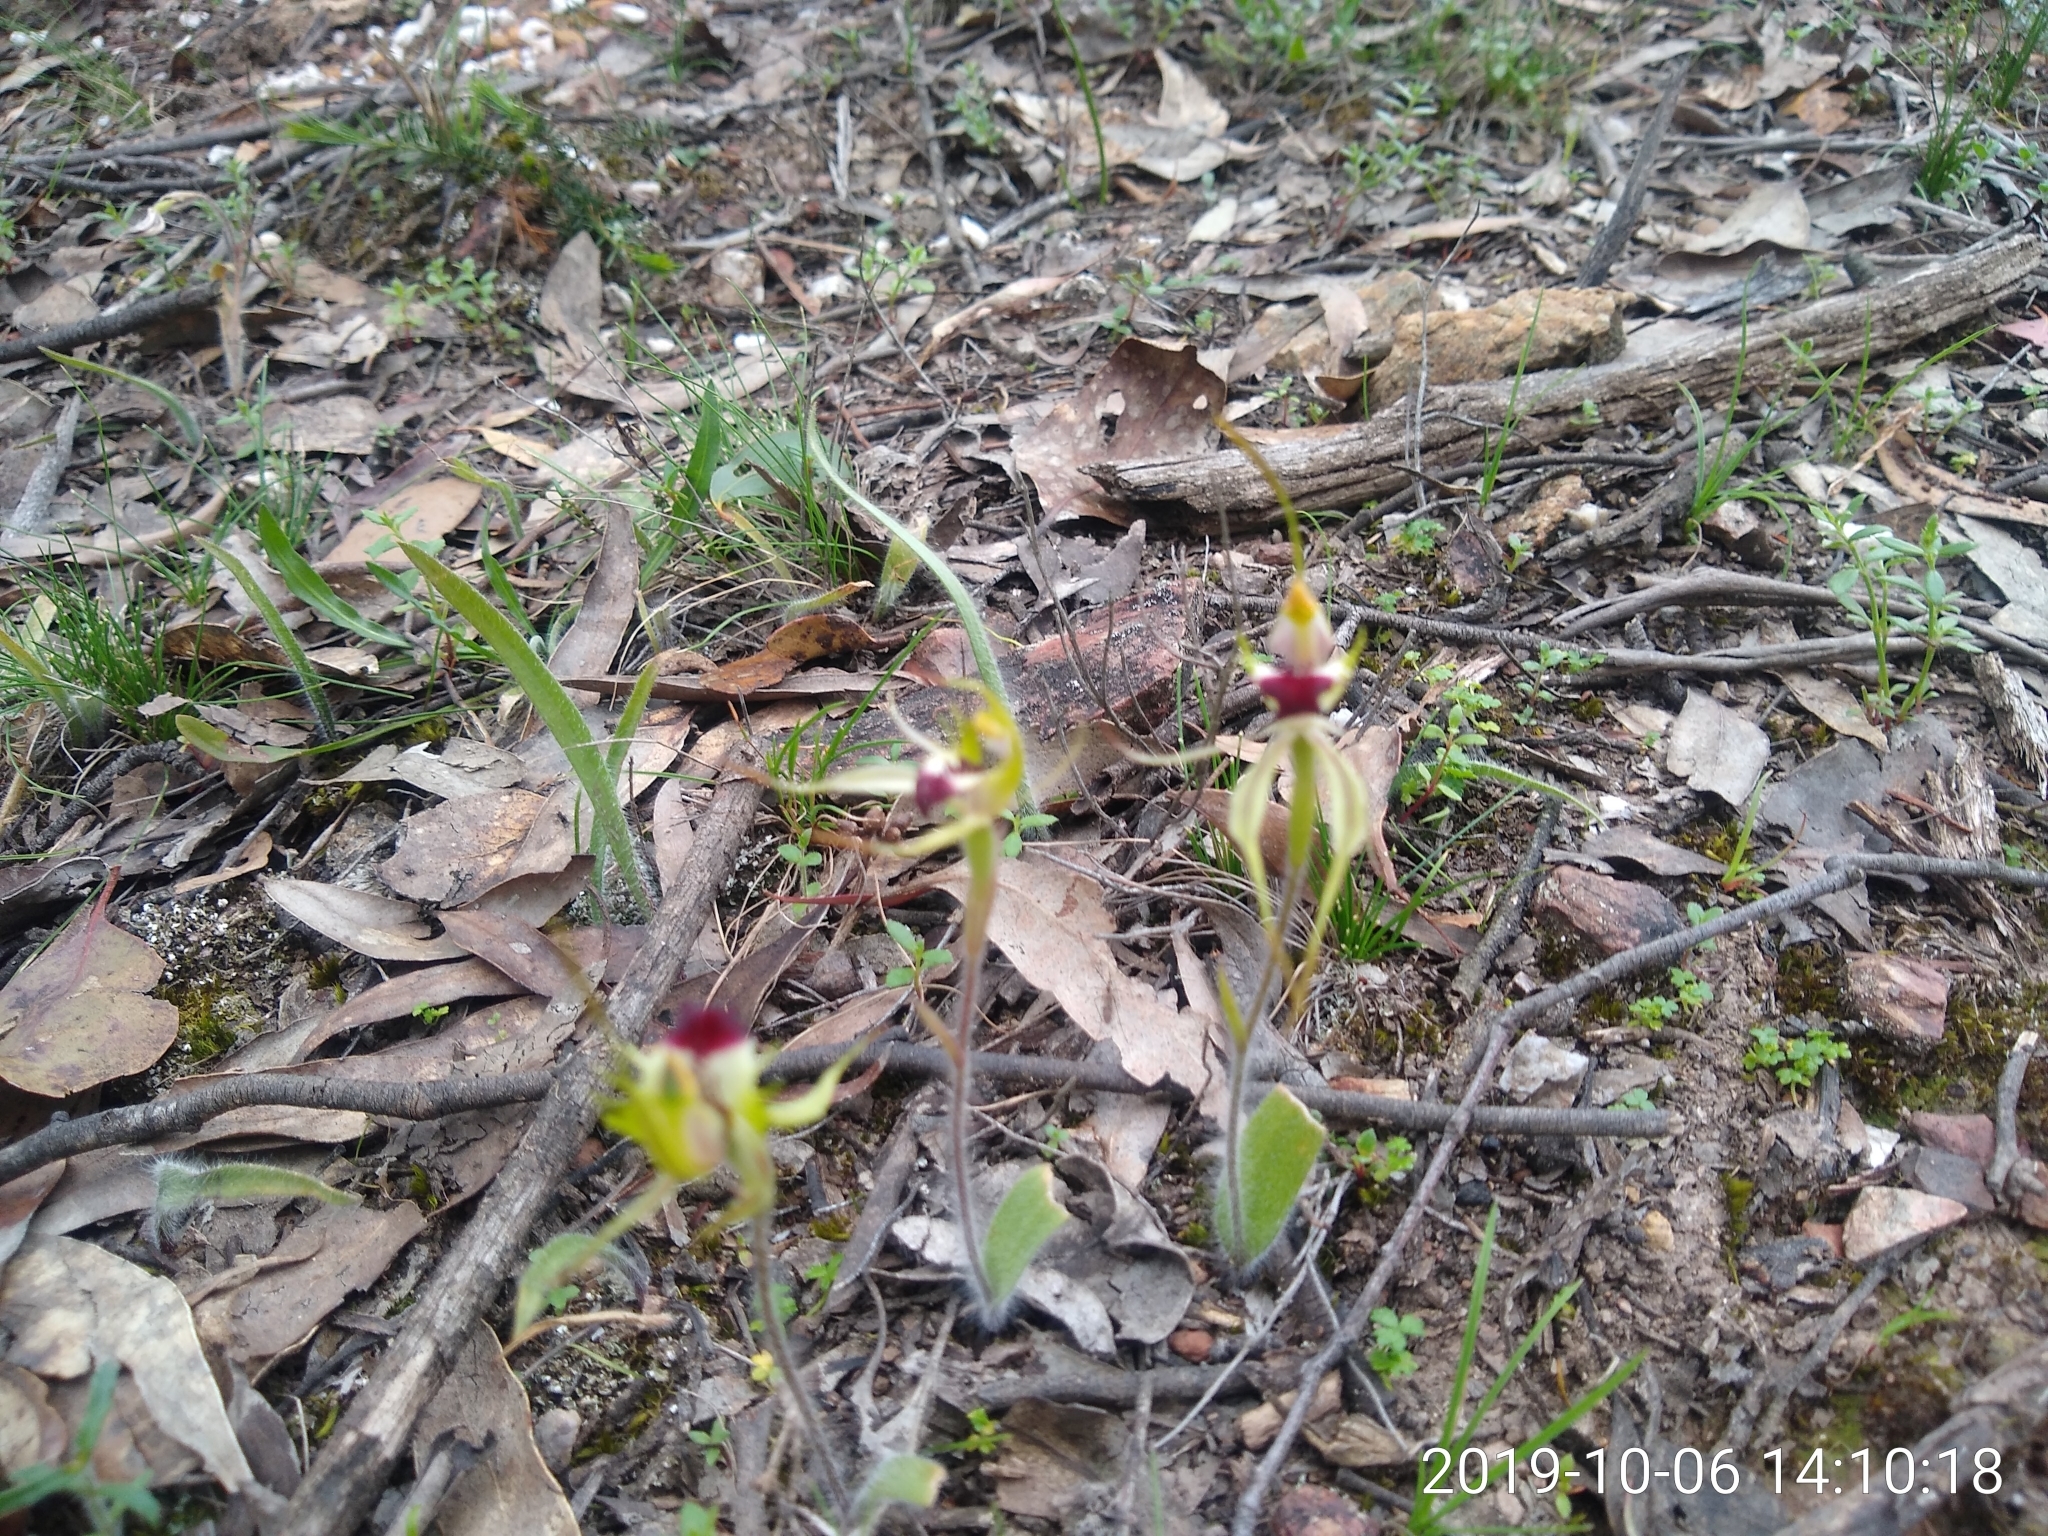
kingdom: Plantae
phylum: Tracheophyta
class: Liliopsida
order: Asparagales
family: Orchidaceae
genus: Caladenia
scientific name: Caladenia parva
